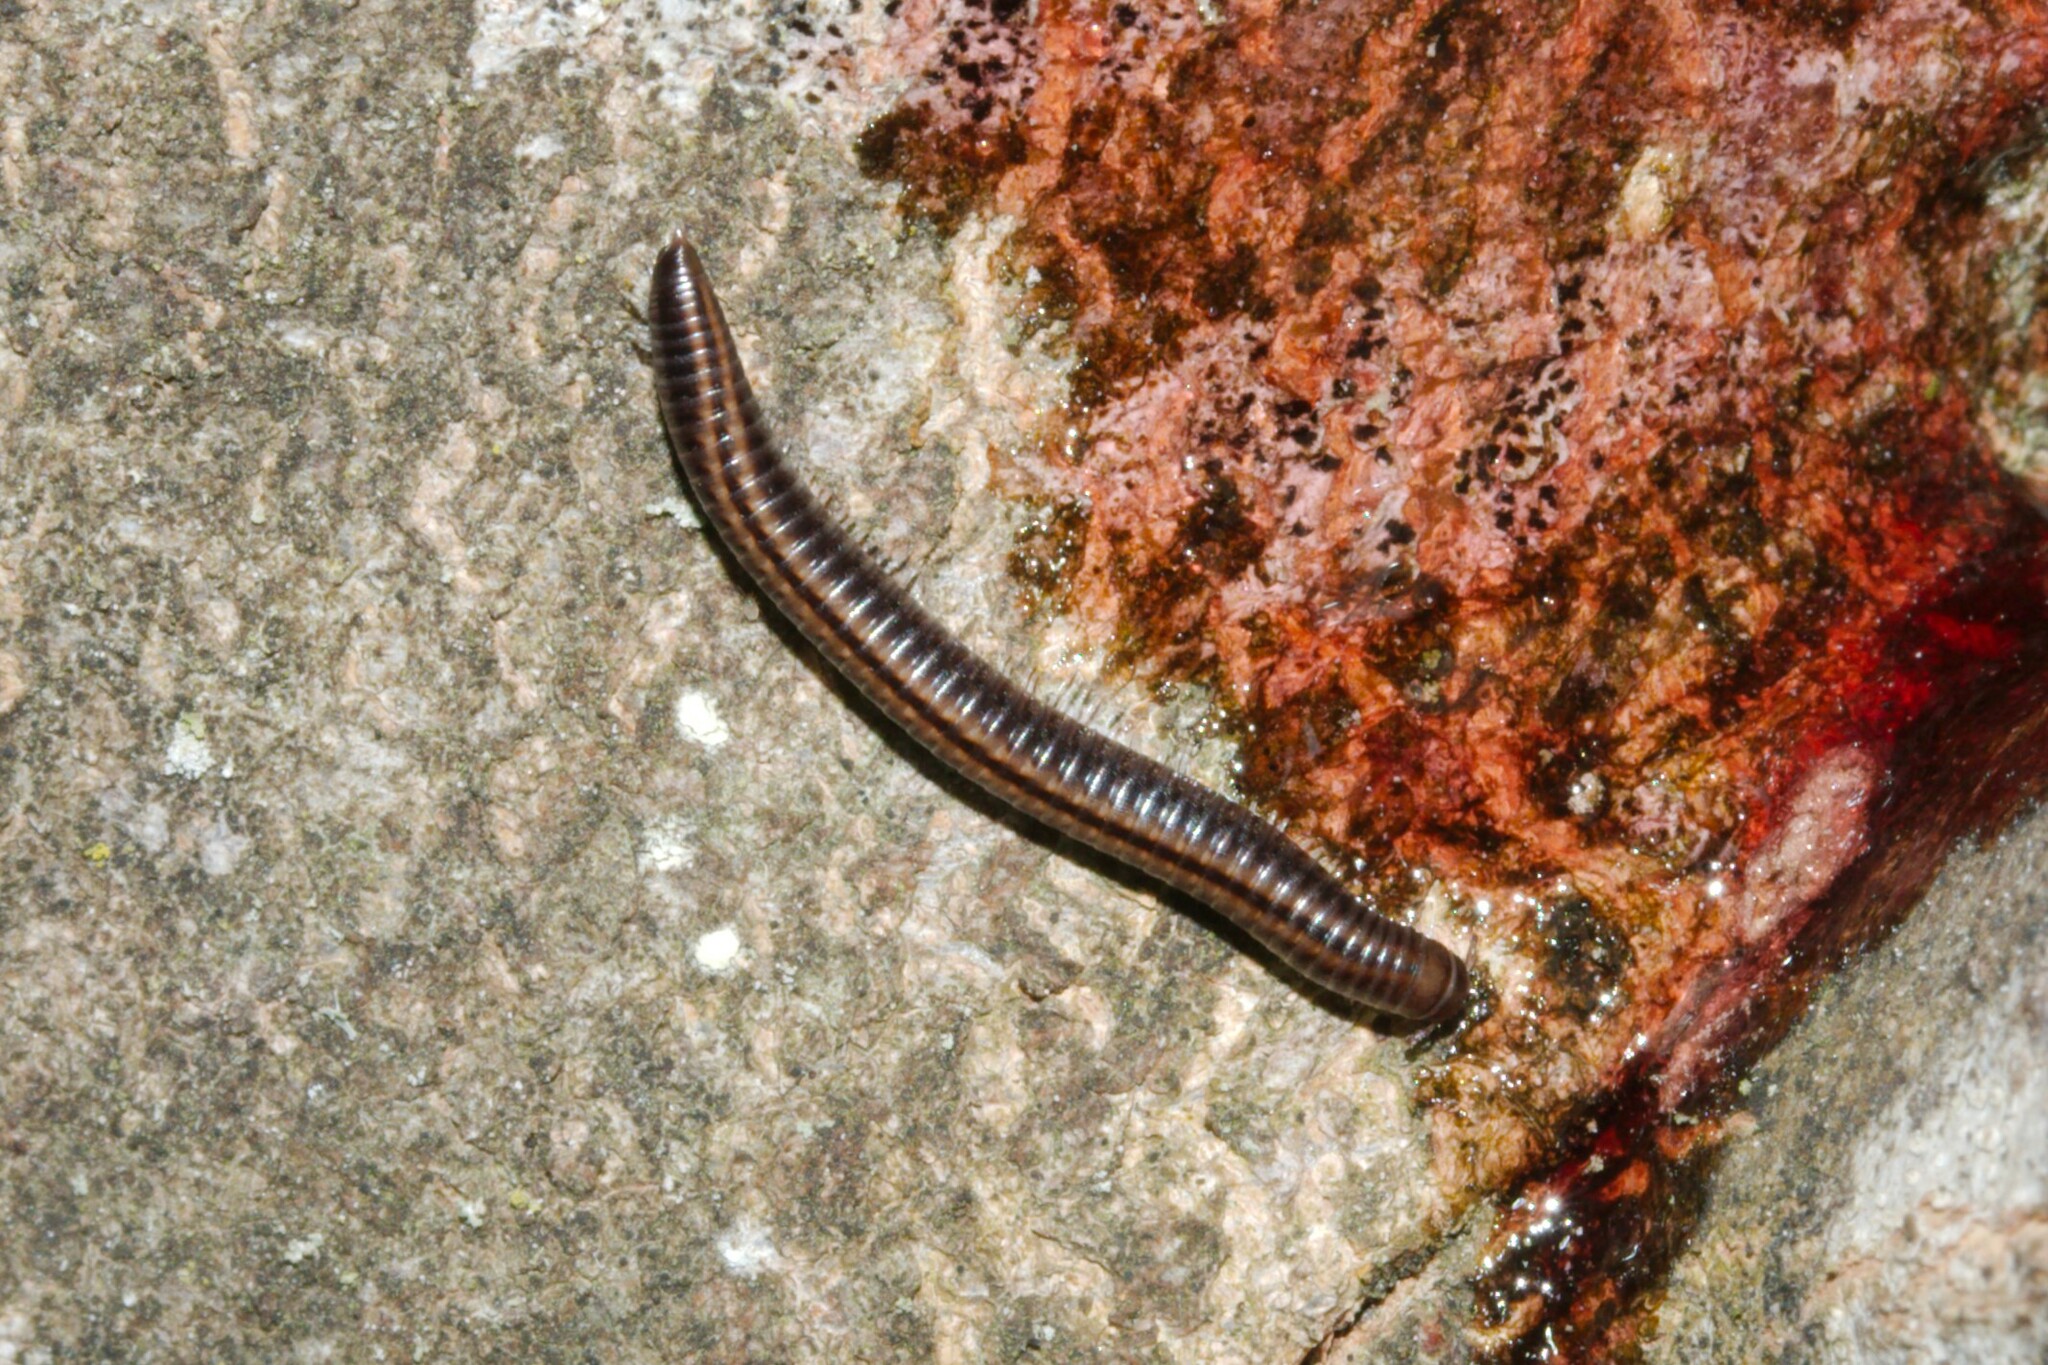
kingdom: Animalia
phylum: Arthropoda
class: Diplopoda
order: Julida
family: Julidae
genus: Ommatoiulus
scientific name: Ommatoiulus sabulosus
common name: Striped millipede
